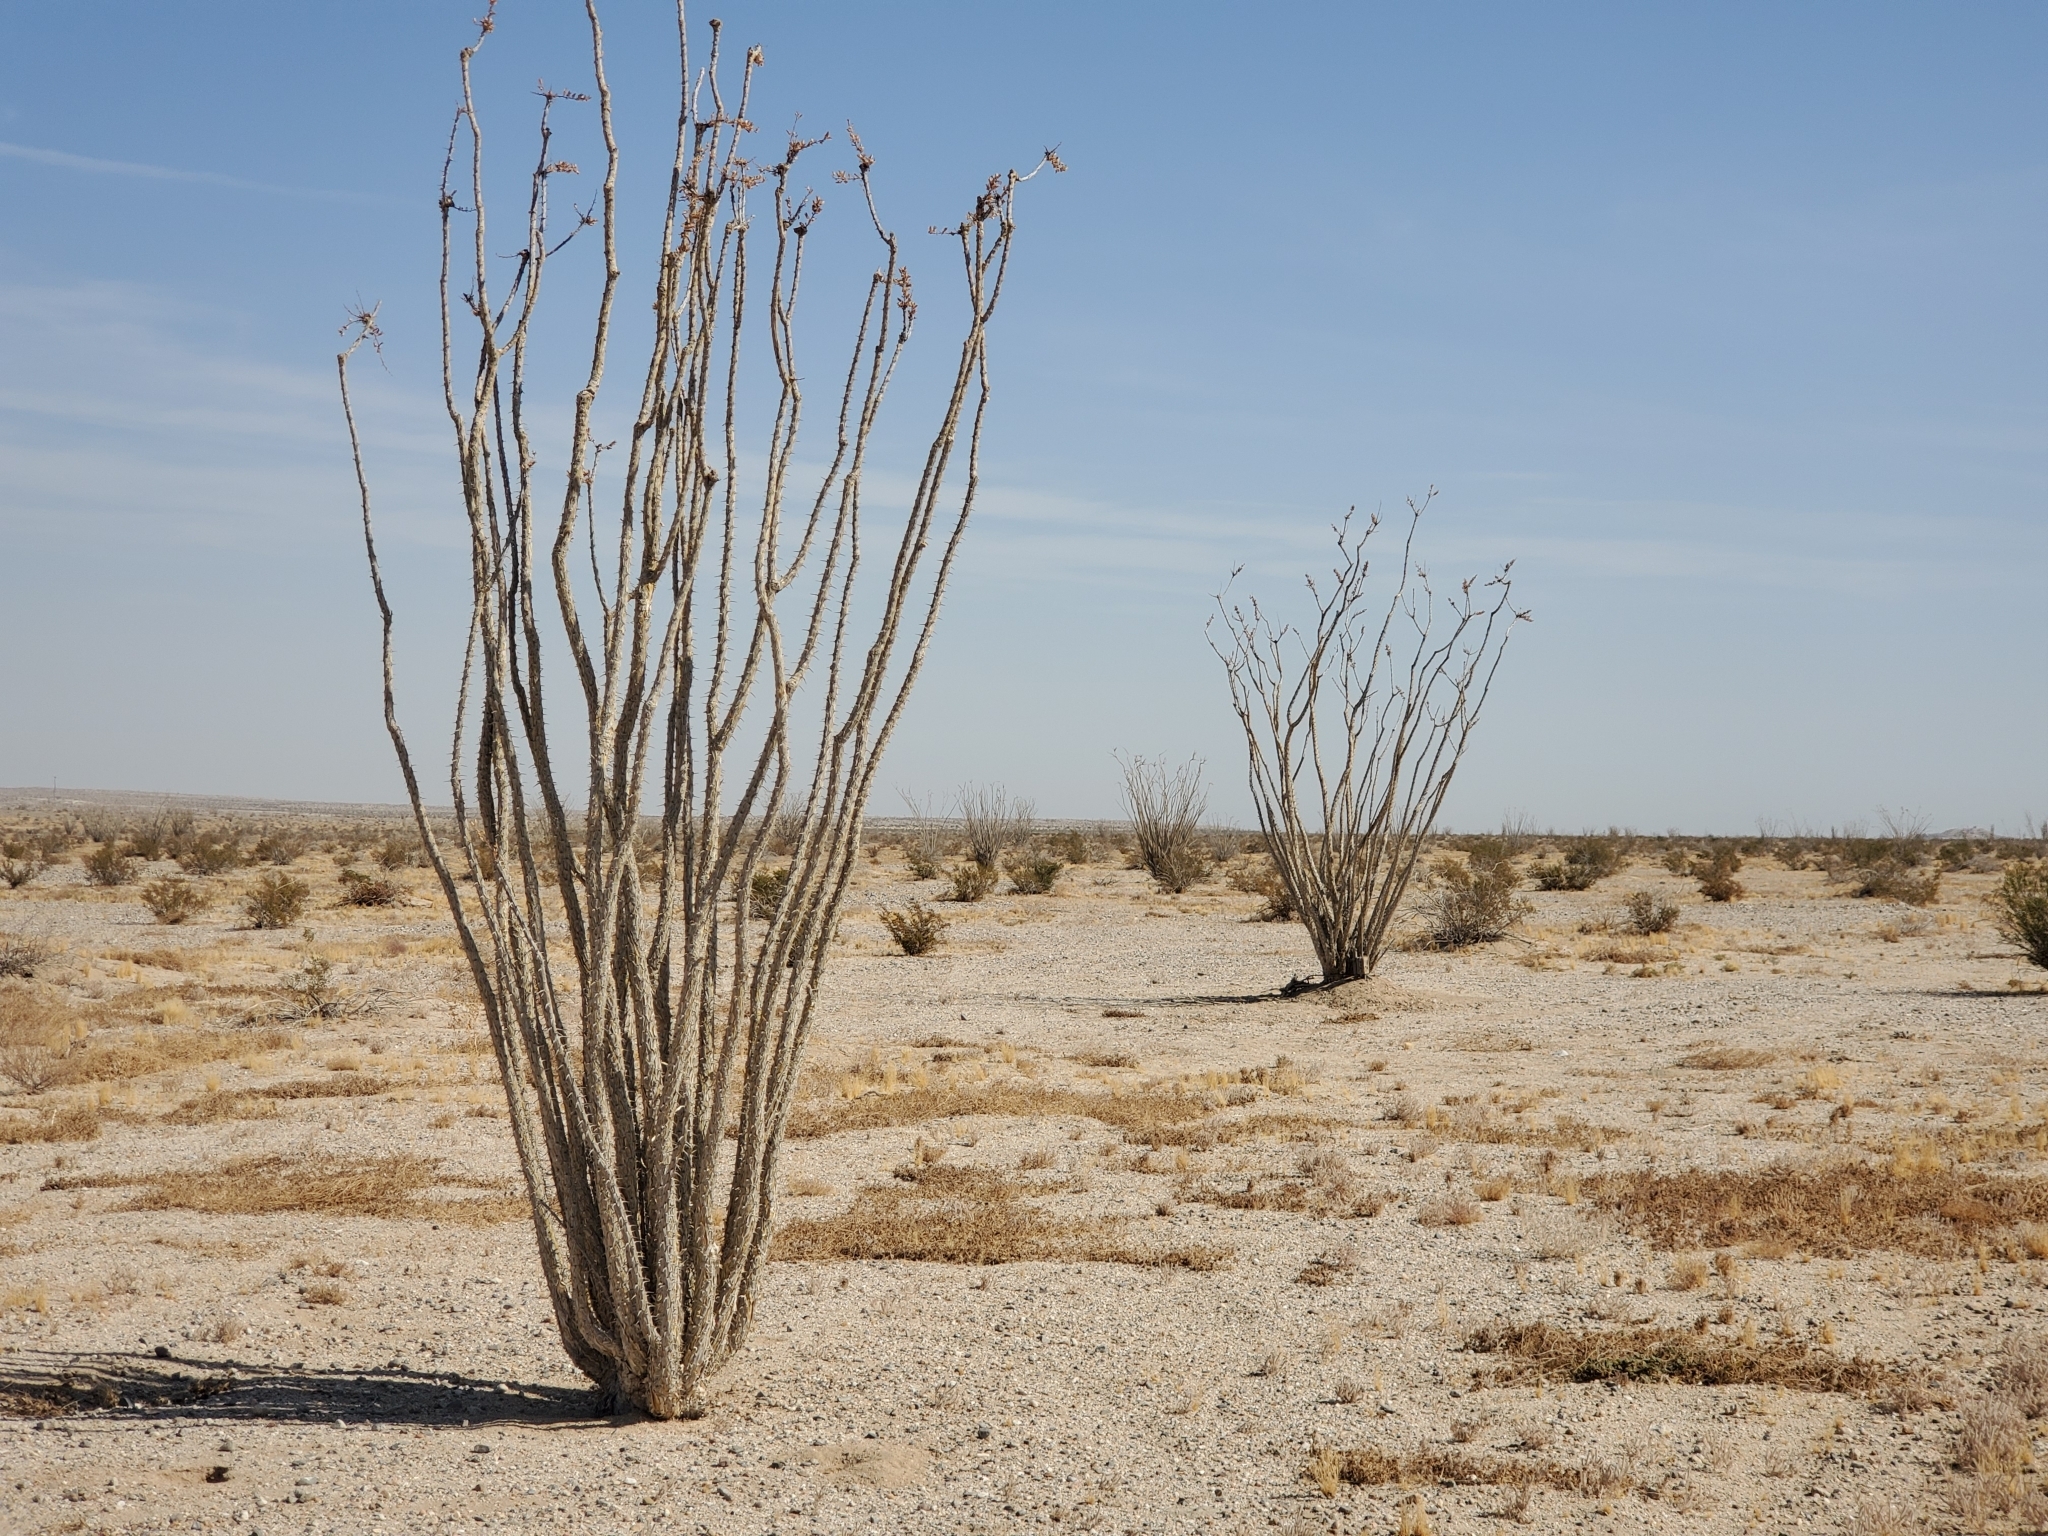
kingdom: Plantae
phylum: Tracheophyta
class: Magnoliopsida
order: Ericales
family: Fouquieriaceae
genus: Fouquieria
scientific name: Fouquieria splendens
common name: Vine-cactus
